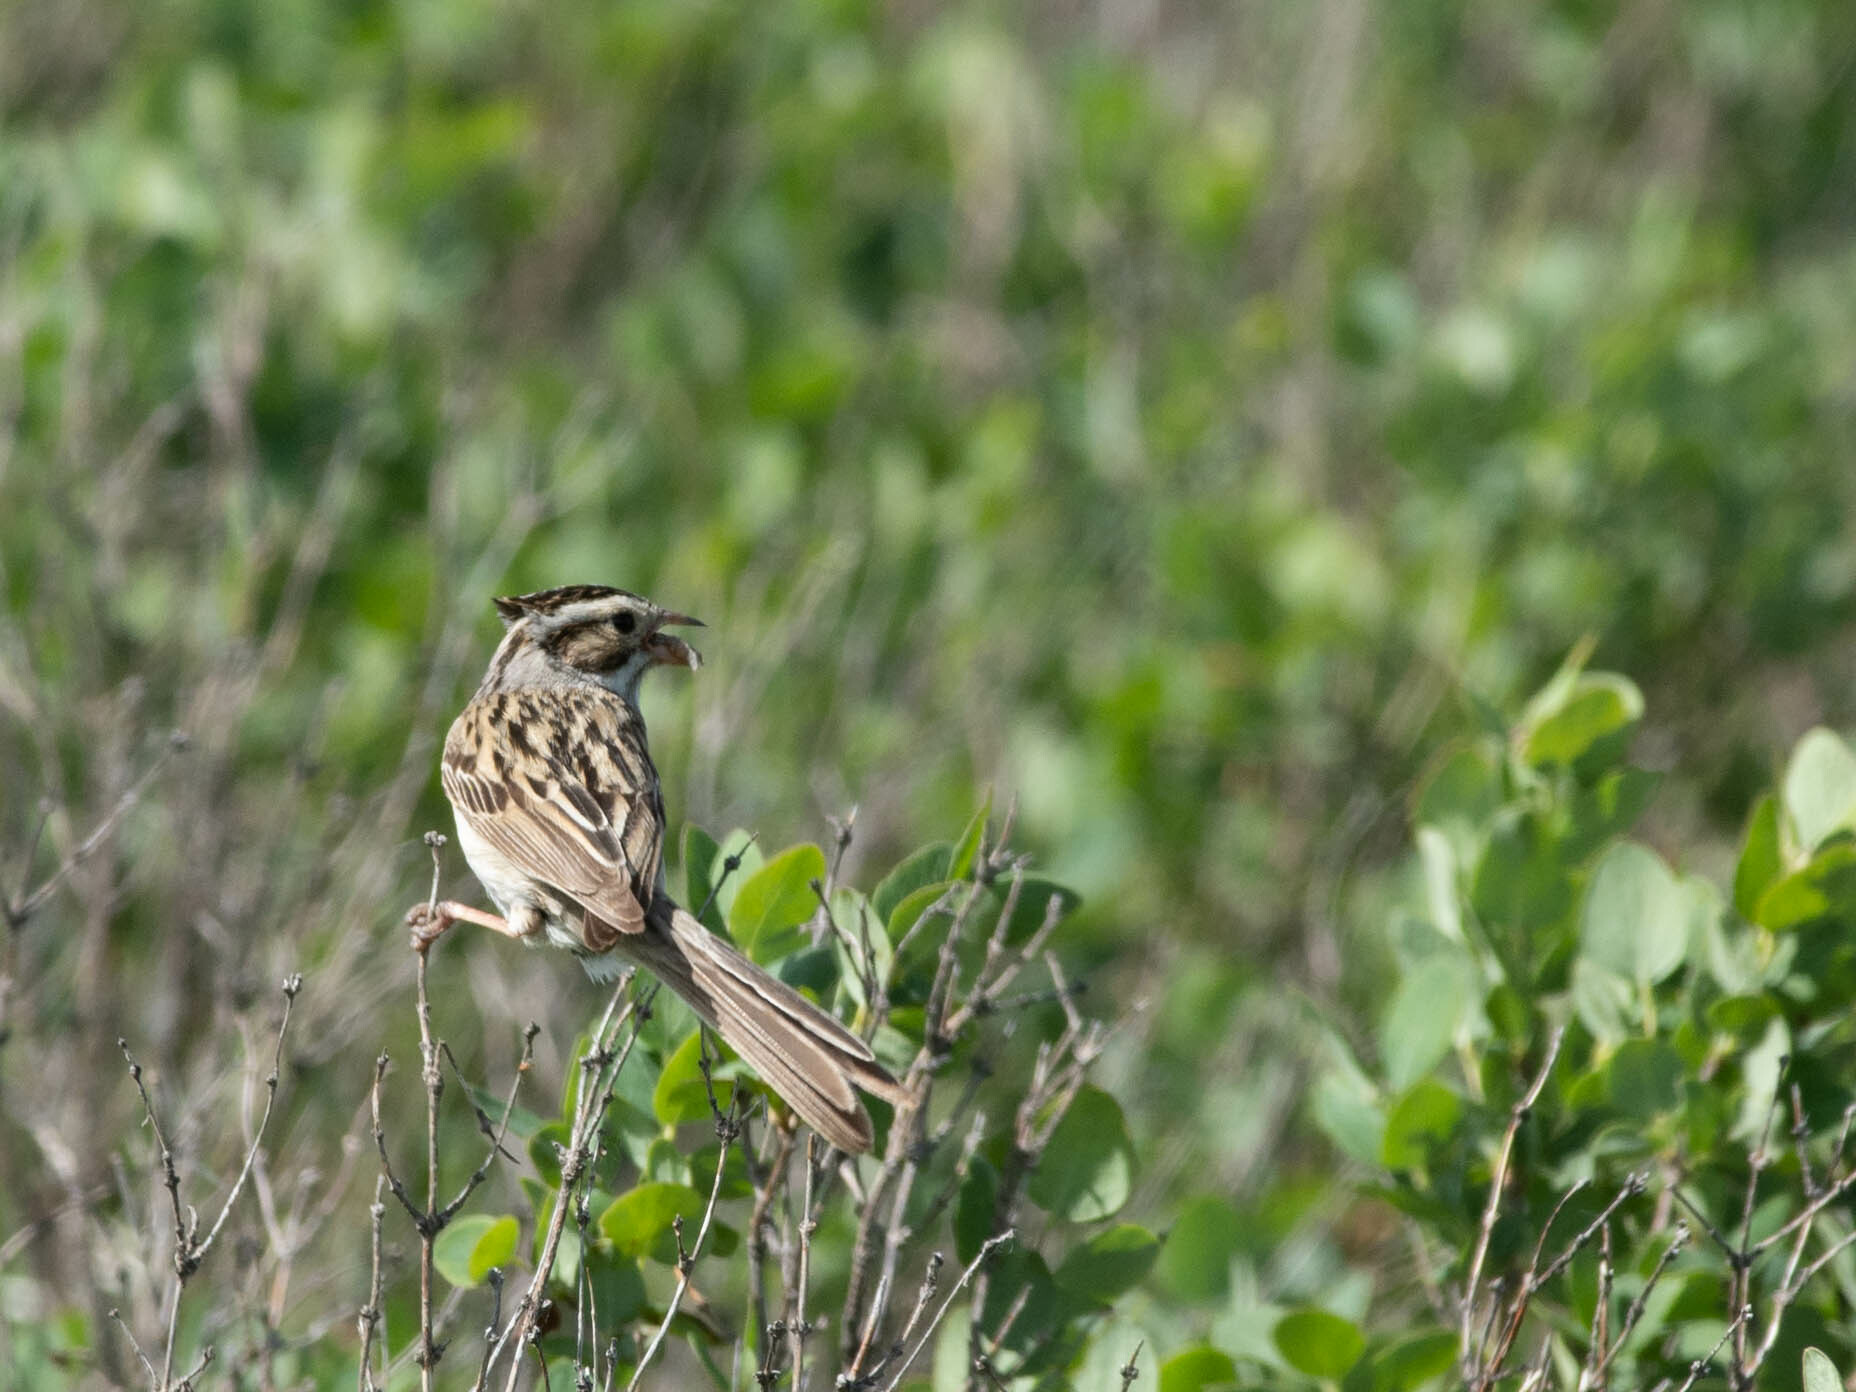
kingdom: Animalia
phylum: Chordata
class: Aves
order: Passeriformes
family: Passerellidae
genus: Spizella
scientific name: Spizella pallida
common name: Clay-colored sparrow
